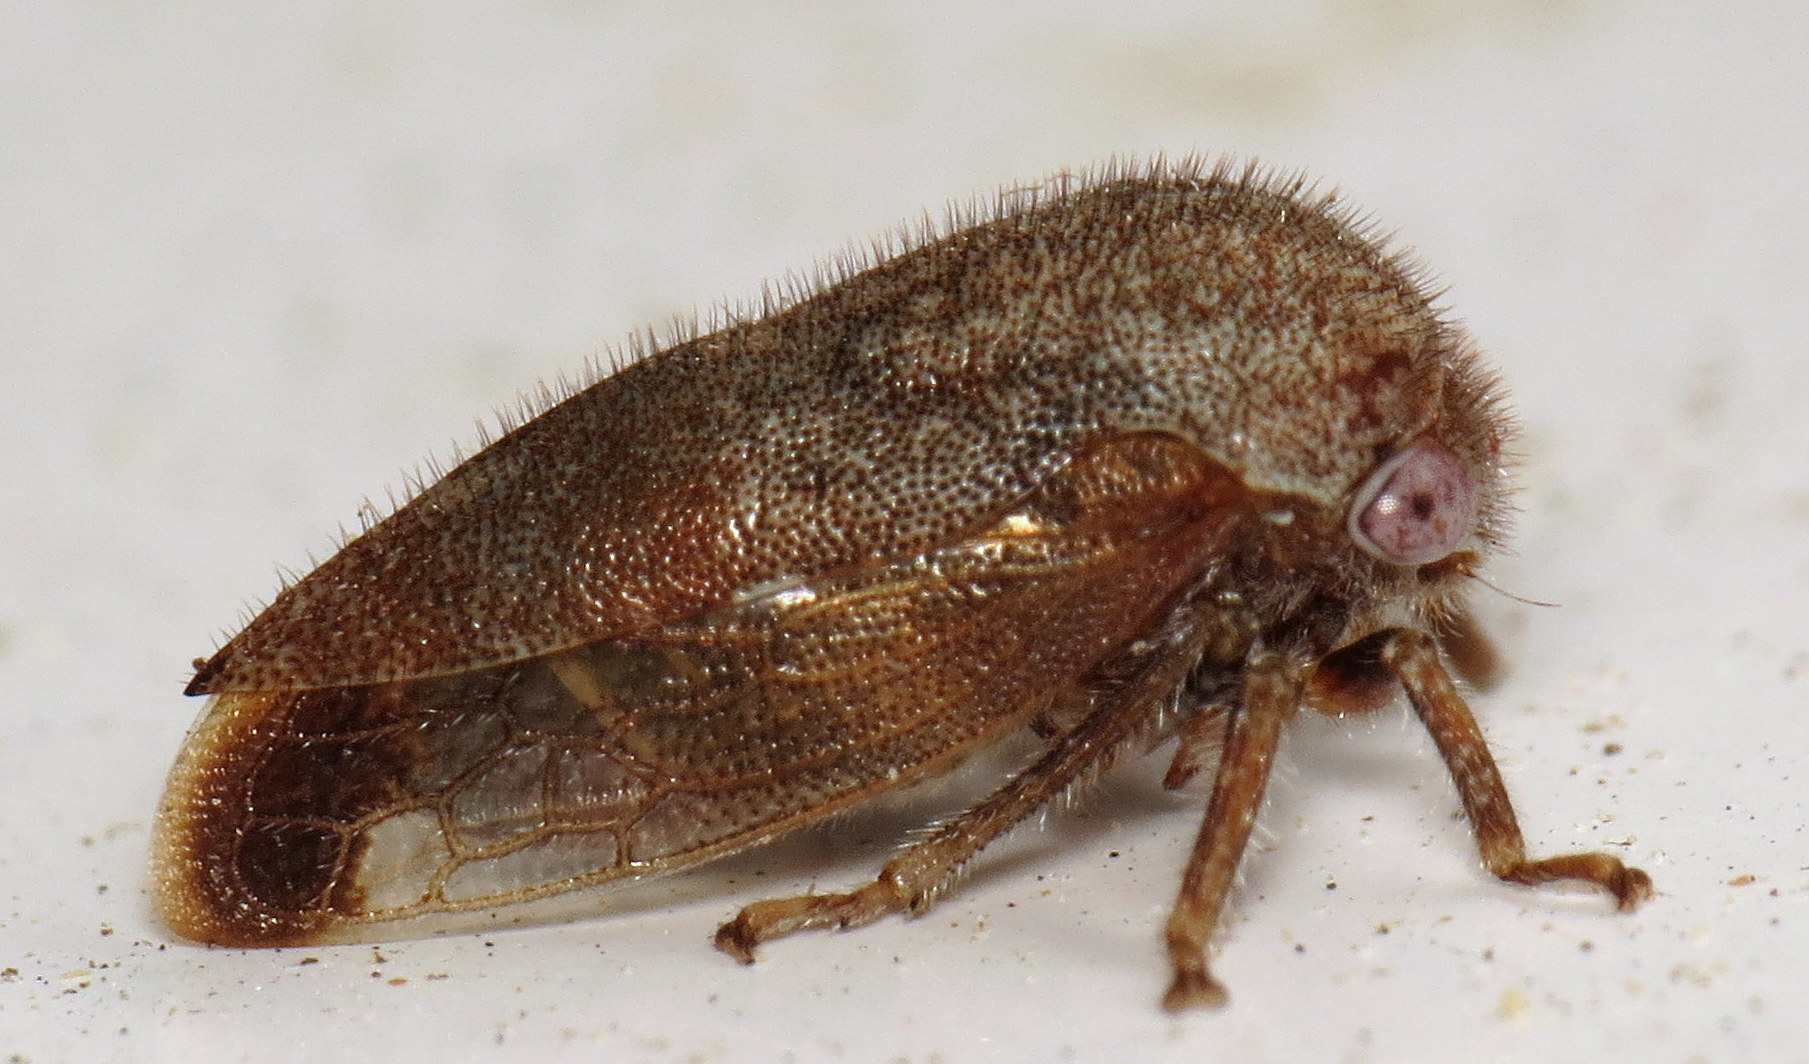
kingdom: Animalia
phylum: Arthropoda
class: Insecta
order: Hemiptera
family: Membracidae
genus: Ophiderma
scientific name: Ophiderma pubescens
